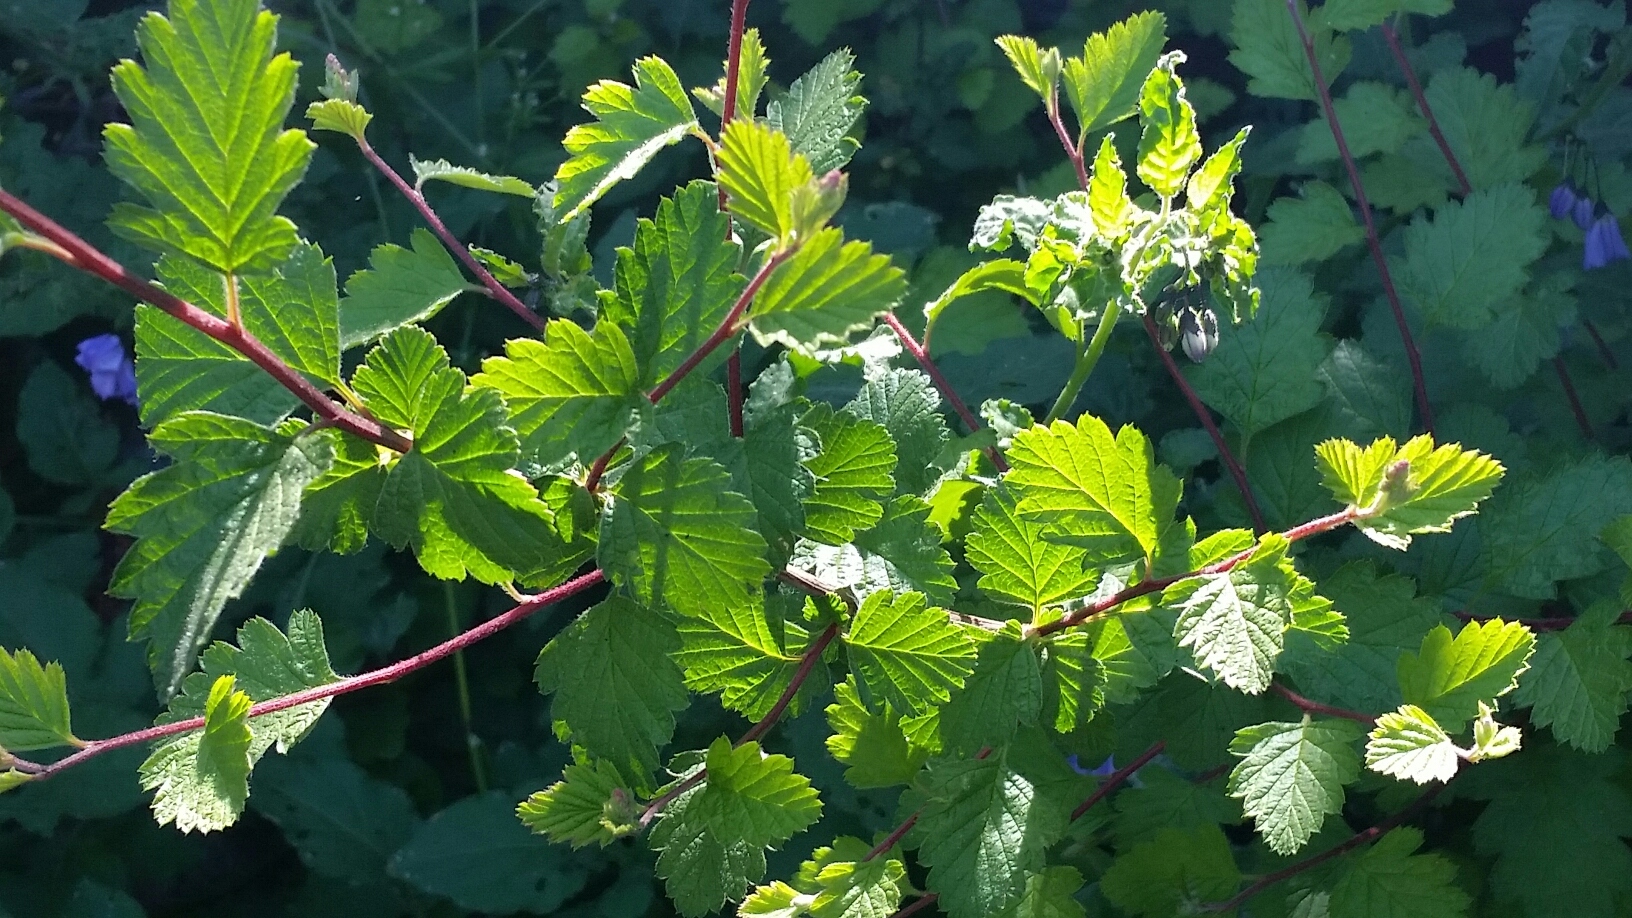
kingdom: Plantae
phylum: Tracheophyta
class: Magnoliopsida
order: Rosales
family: Rosaceae
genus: Holodiscus
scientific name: Holodiscus discolor
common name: Oceanspray
